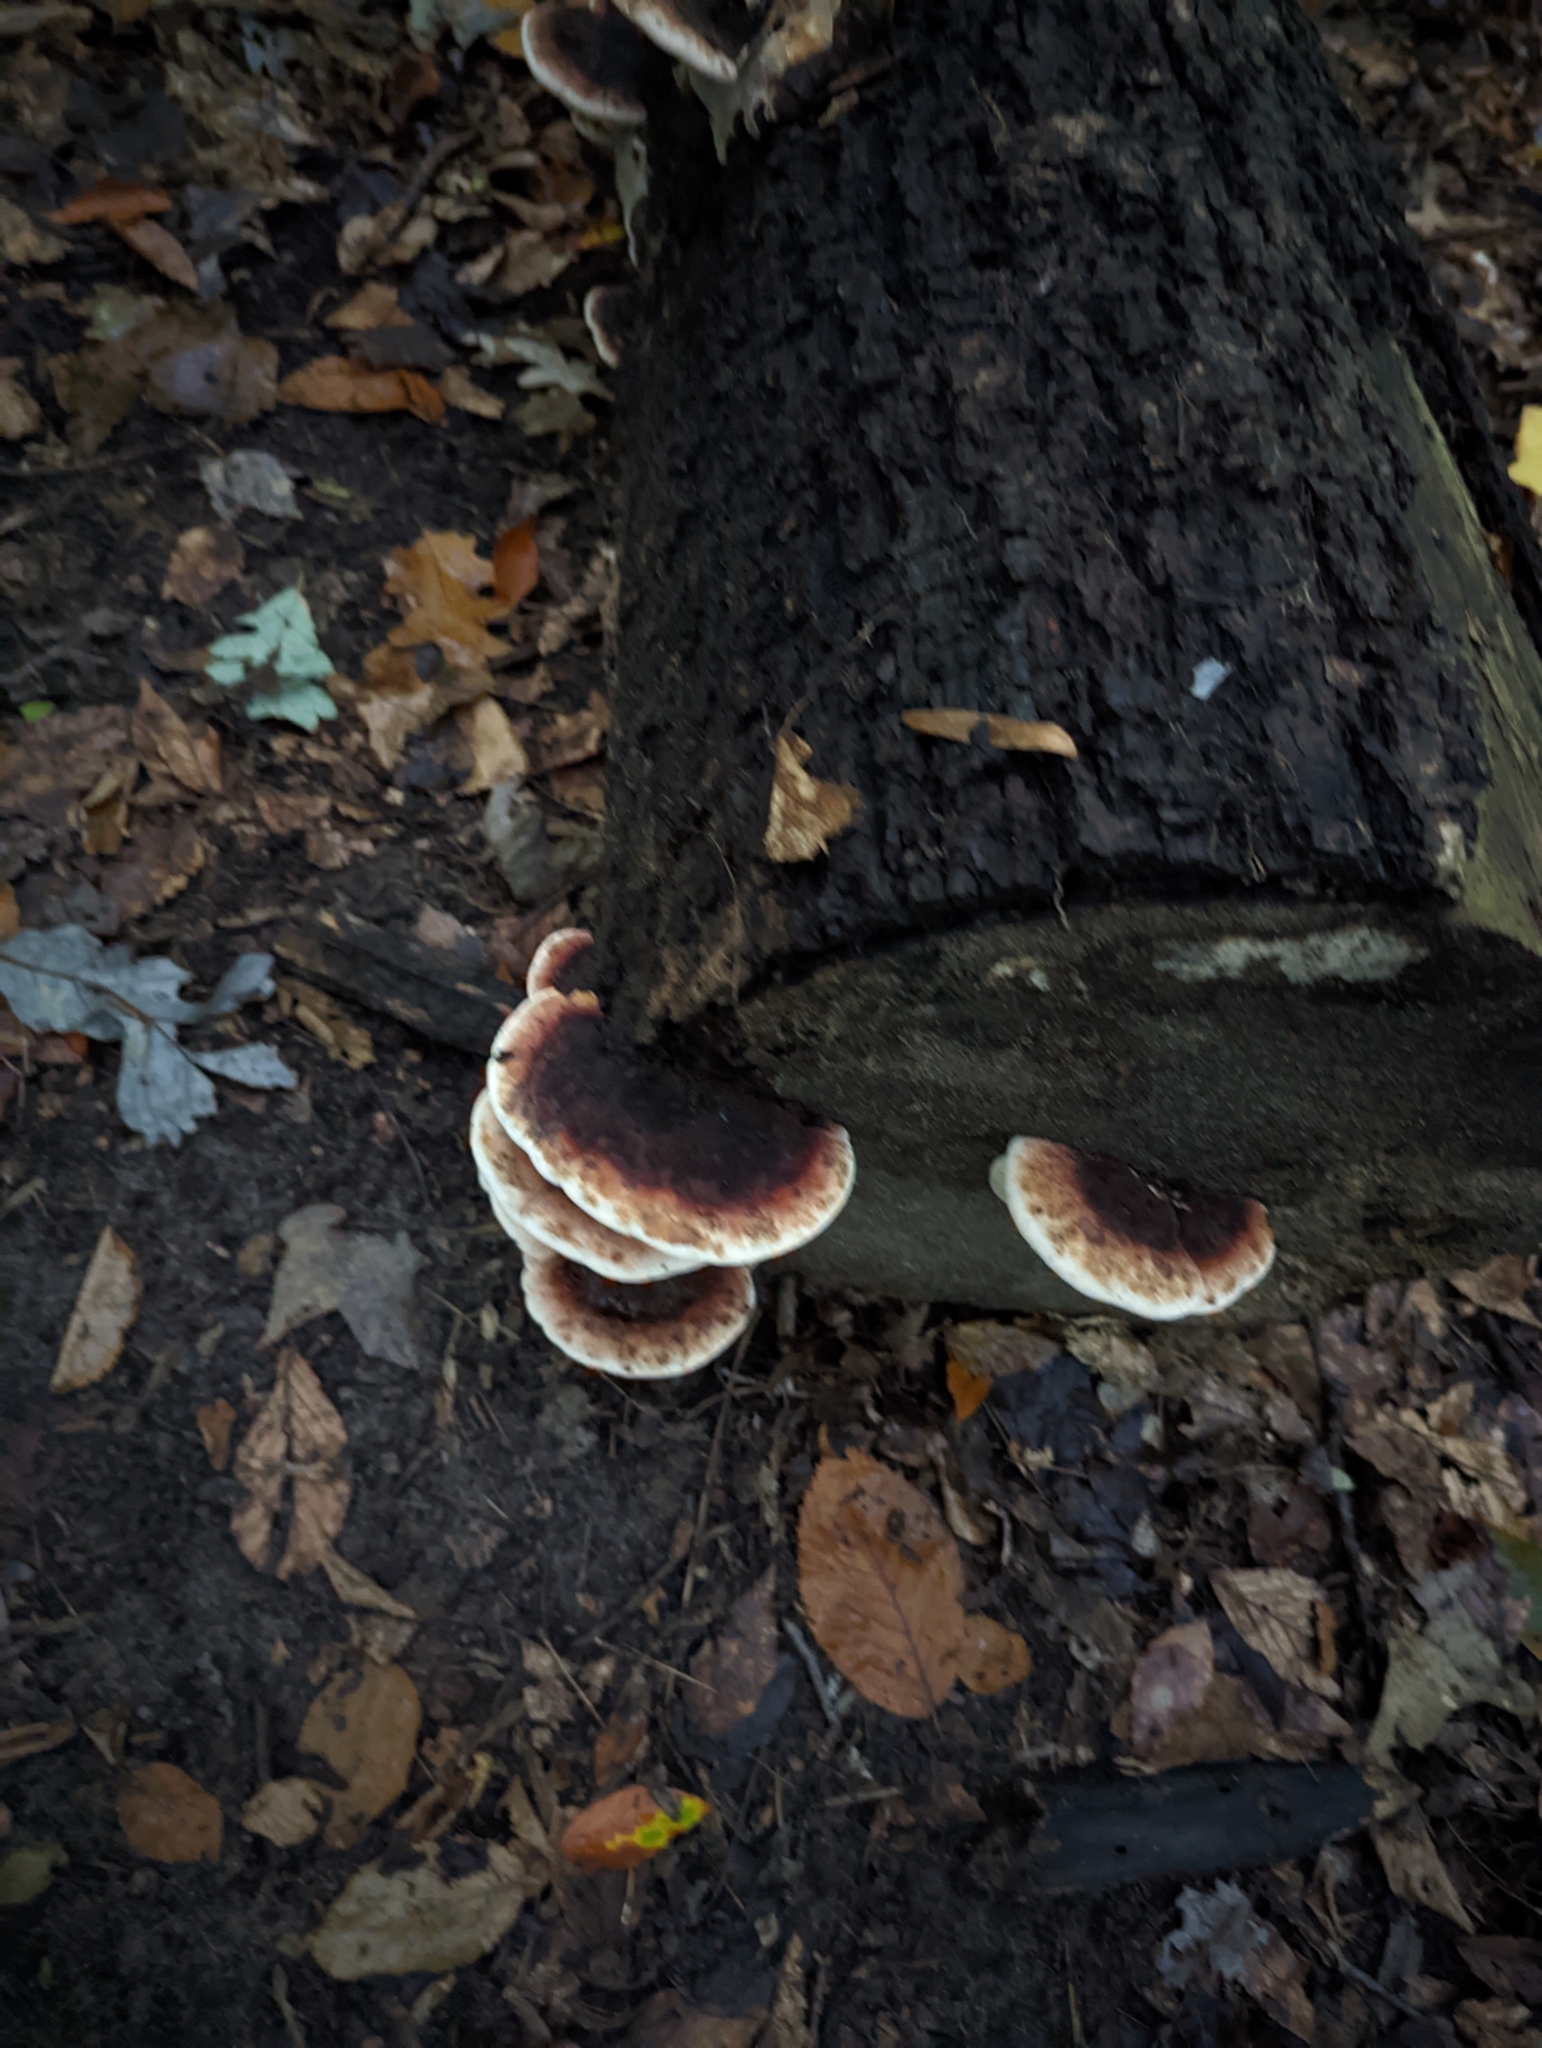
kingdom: Fungi
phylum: Basidiomycota
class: Agaricomycetes
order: Polyporales
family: Ischnodermataceae
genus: Ischnoderma
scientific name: Ischnoderma resinosum
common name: Resinous polypore
